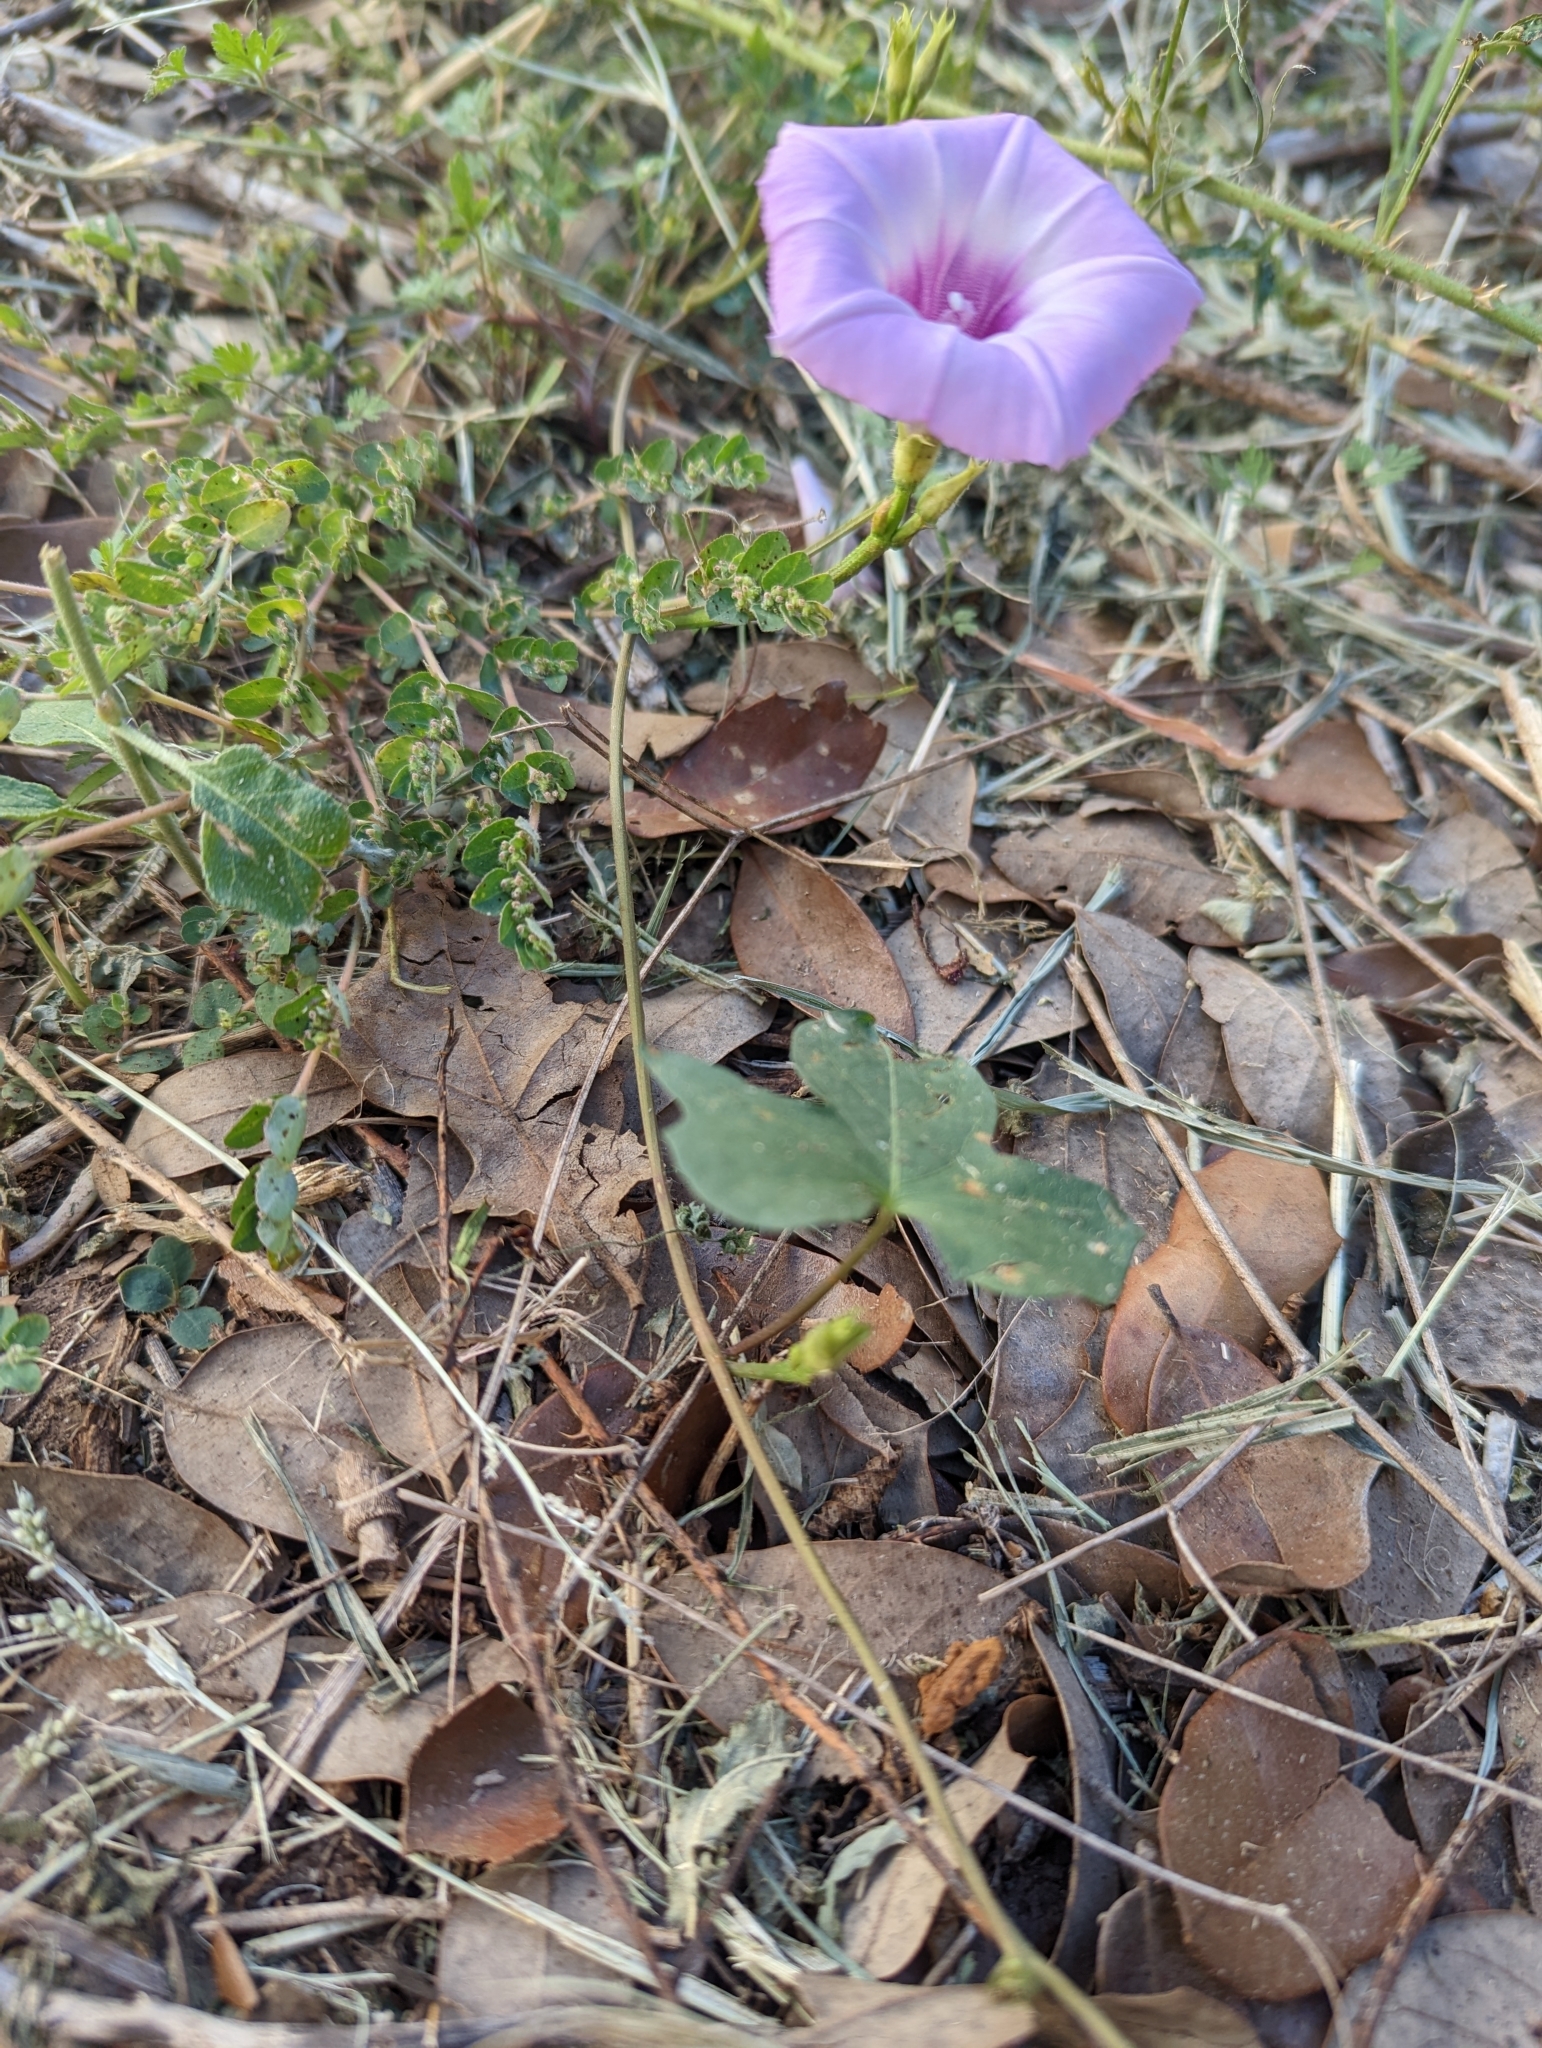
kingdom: Plantae
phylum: Tracheophyta
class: Magnoliopsida
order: Solanales
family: Convolvulaceae
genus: Ipomoea
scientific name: Ipomoea cordatotriloba
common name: Cotton morning glory
